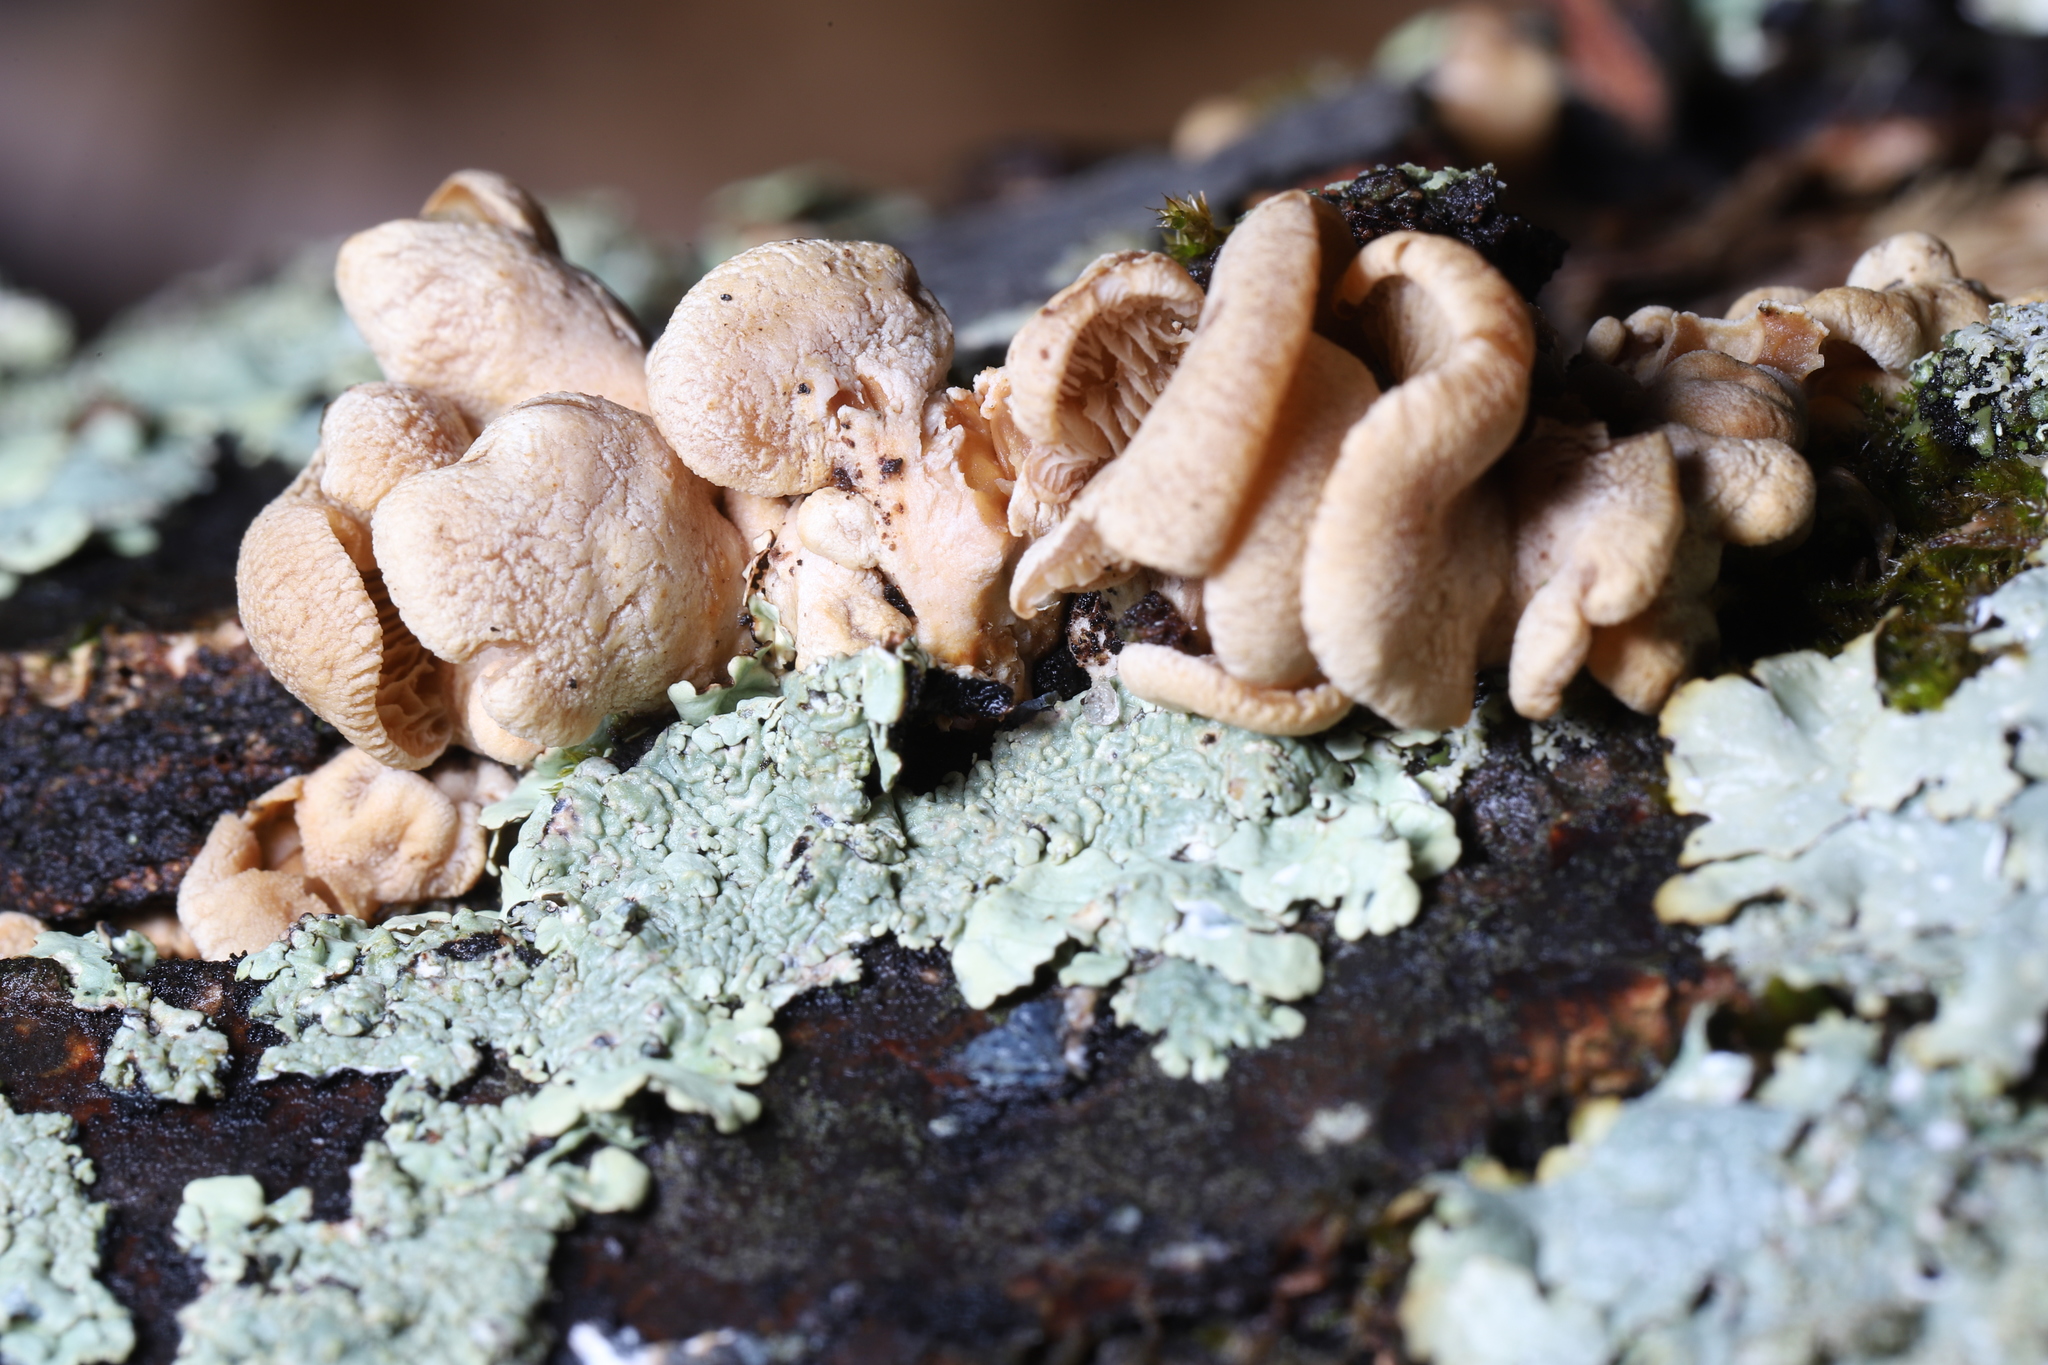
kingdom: Fungi
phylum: Basidiomycota
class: Agaricomycetes
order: Agaricales
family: Mycenaceae
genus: Panellus
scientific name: Panellus stipticus
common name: Bitter oysterling
